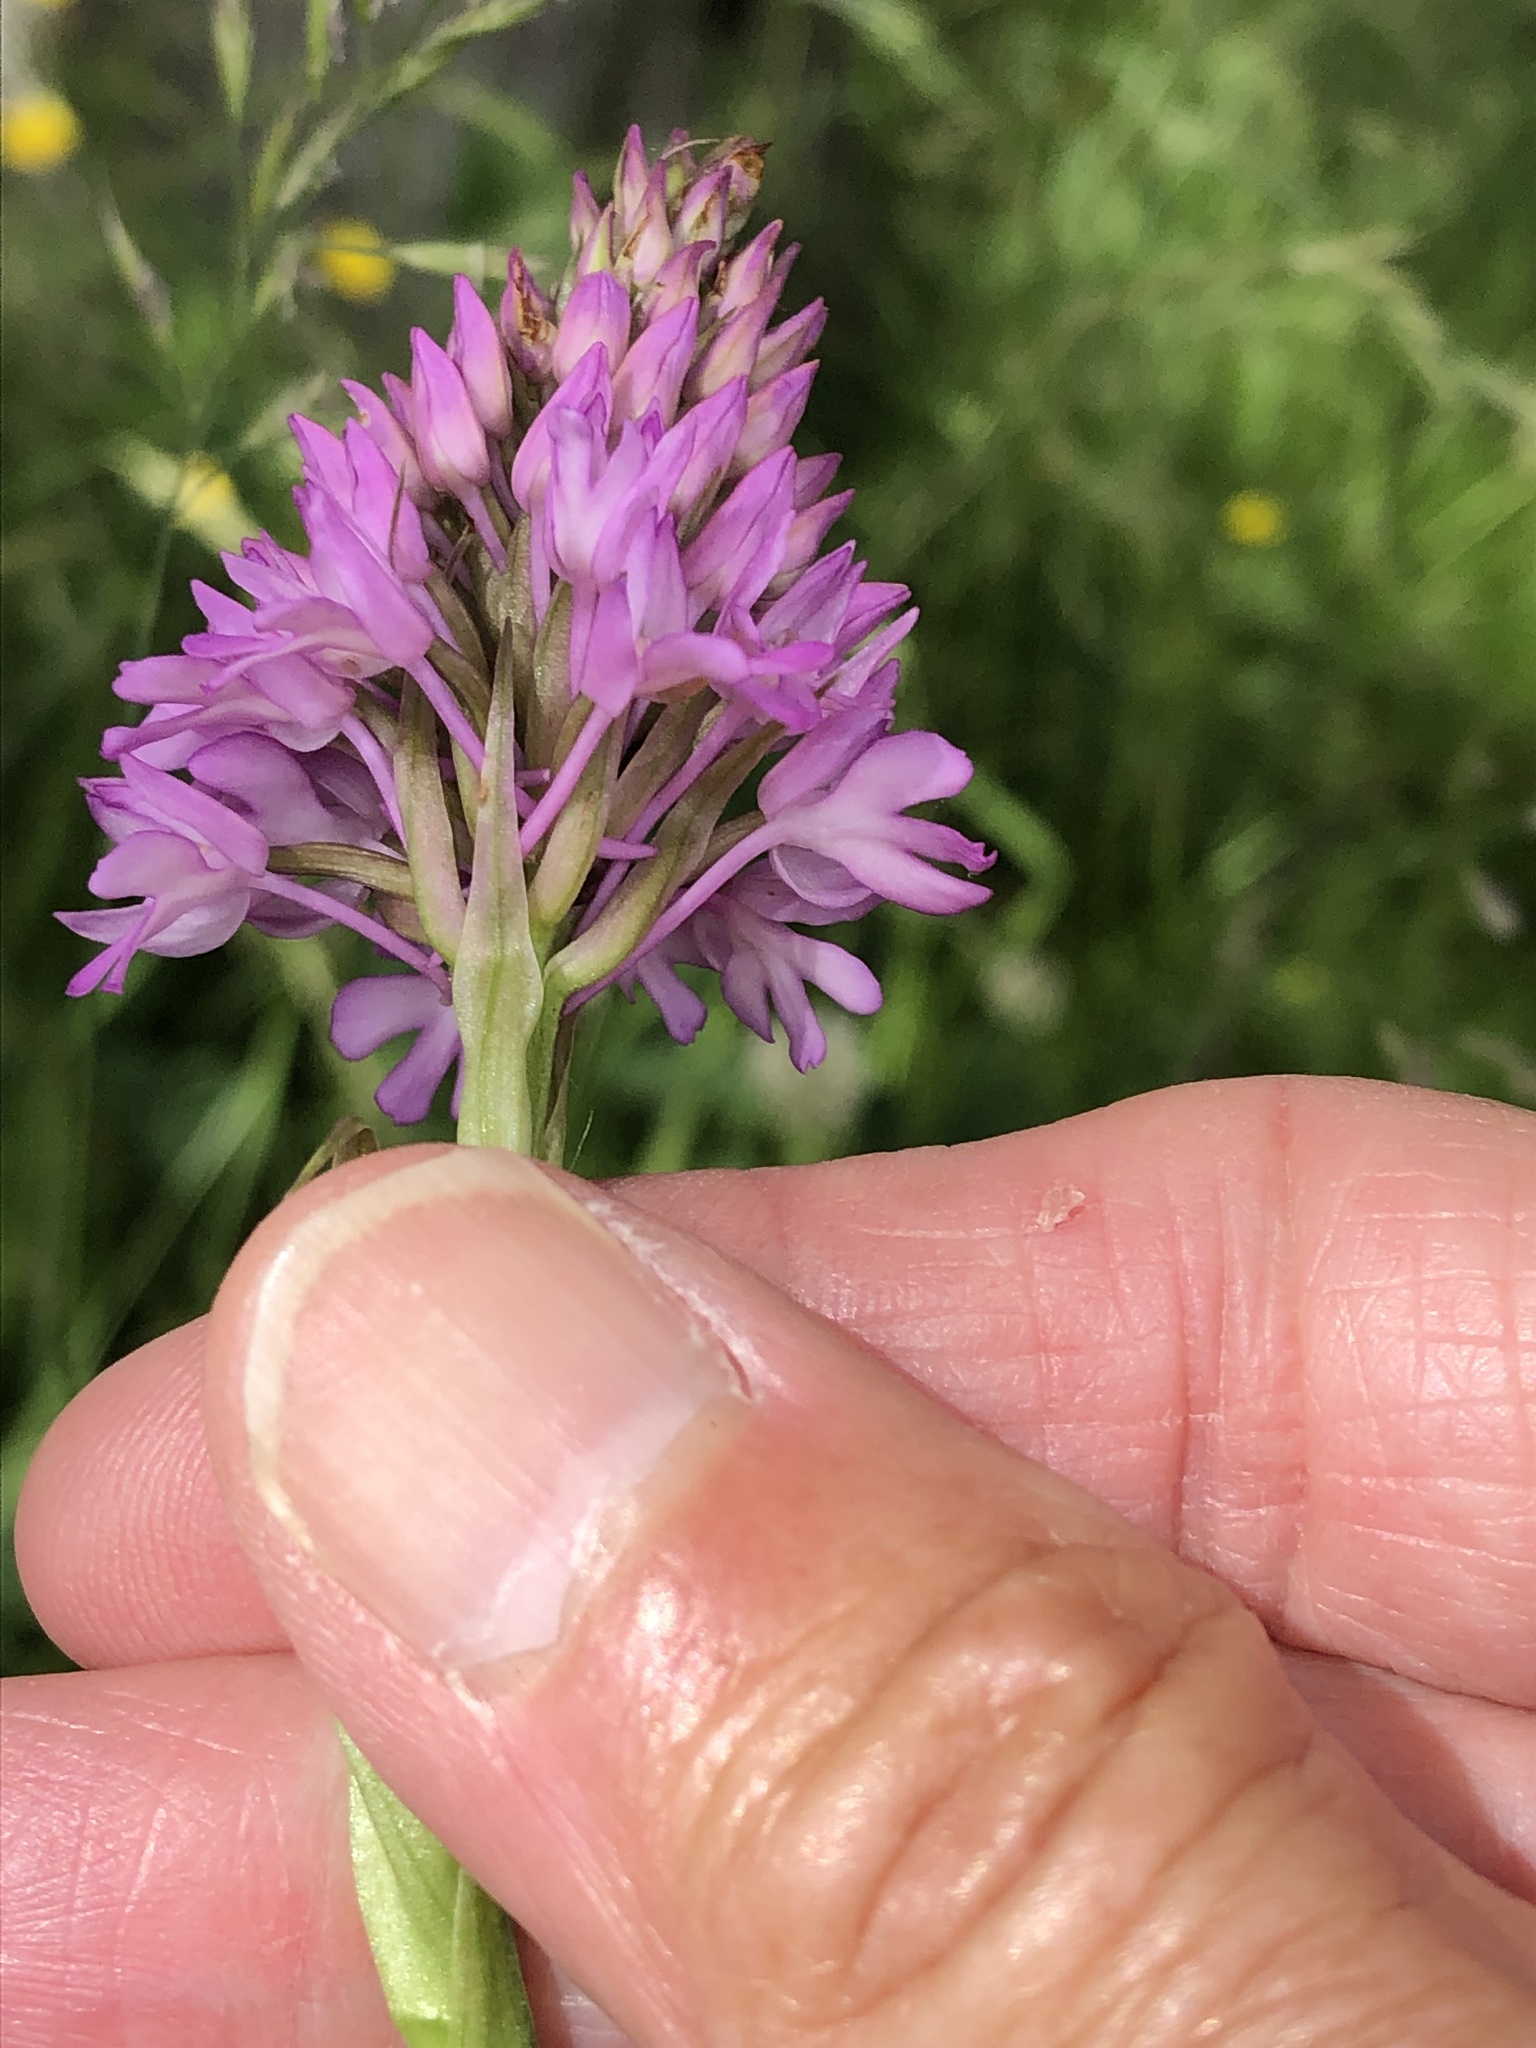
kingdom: Plantae
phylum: Tracheophyta
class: Liliopsida
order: Asparagales
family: Orchidaceae
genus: Anacamptis
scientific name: Anacamptis pyramidalis
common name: Pyramidal orchid
